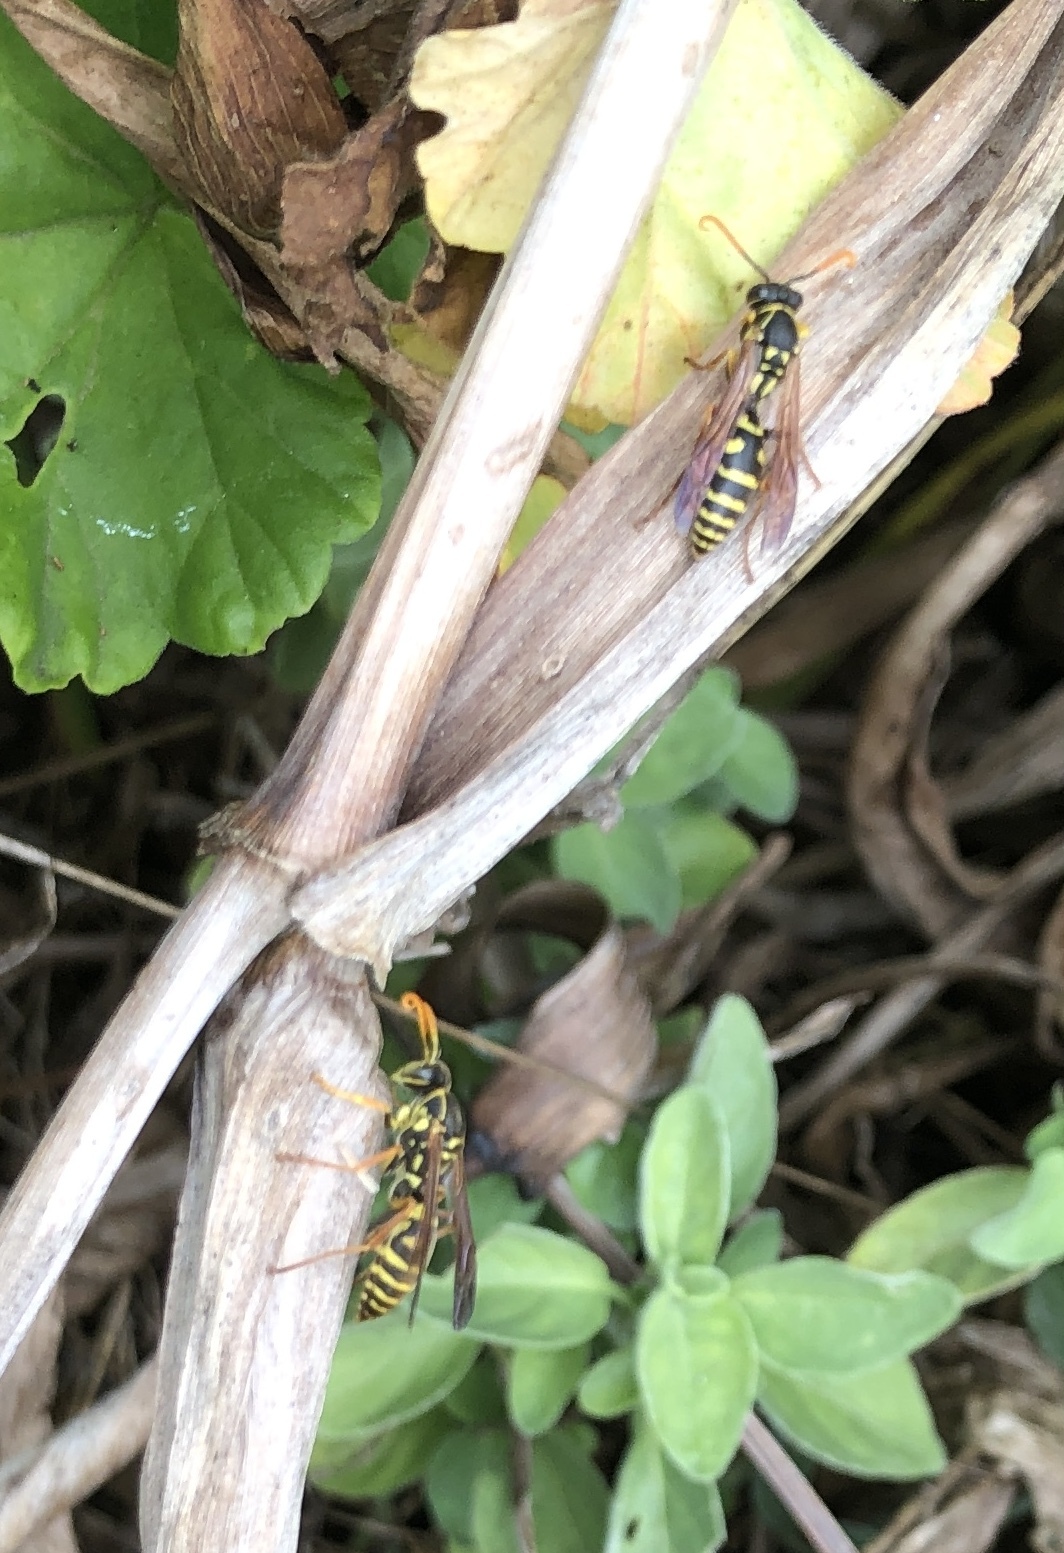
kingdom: Animalia
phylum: Arthropoda
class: Insecta
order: Hymenoptera
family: Eumenidae
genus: Polistes
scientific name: Polistes chinensis
